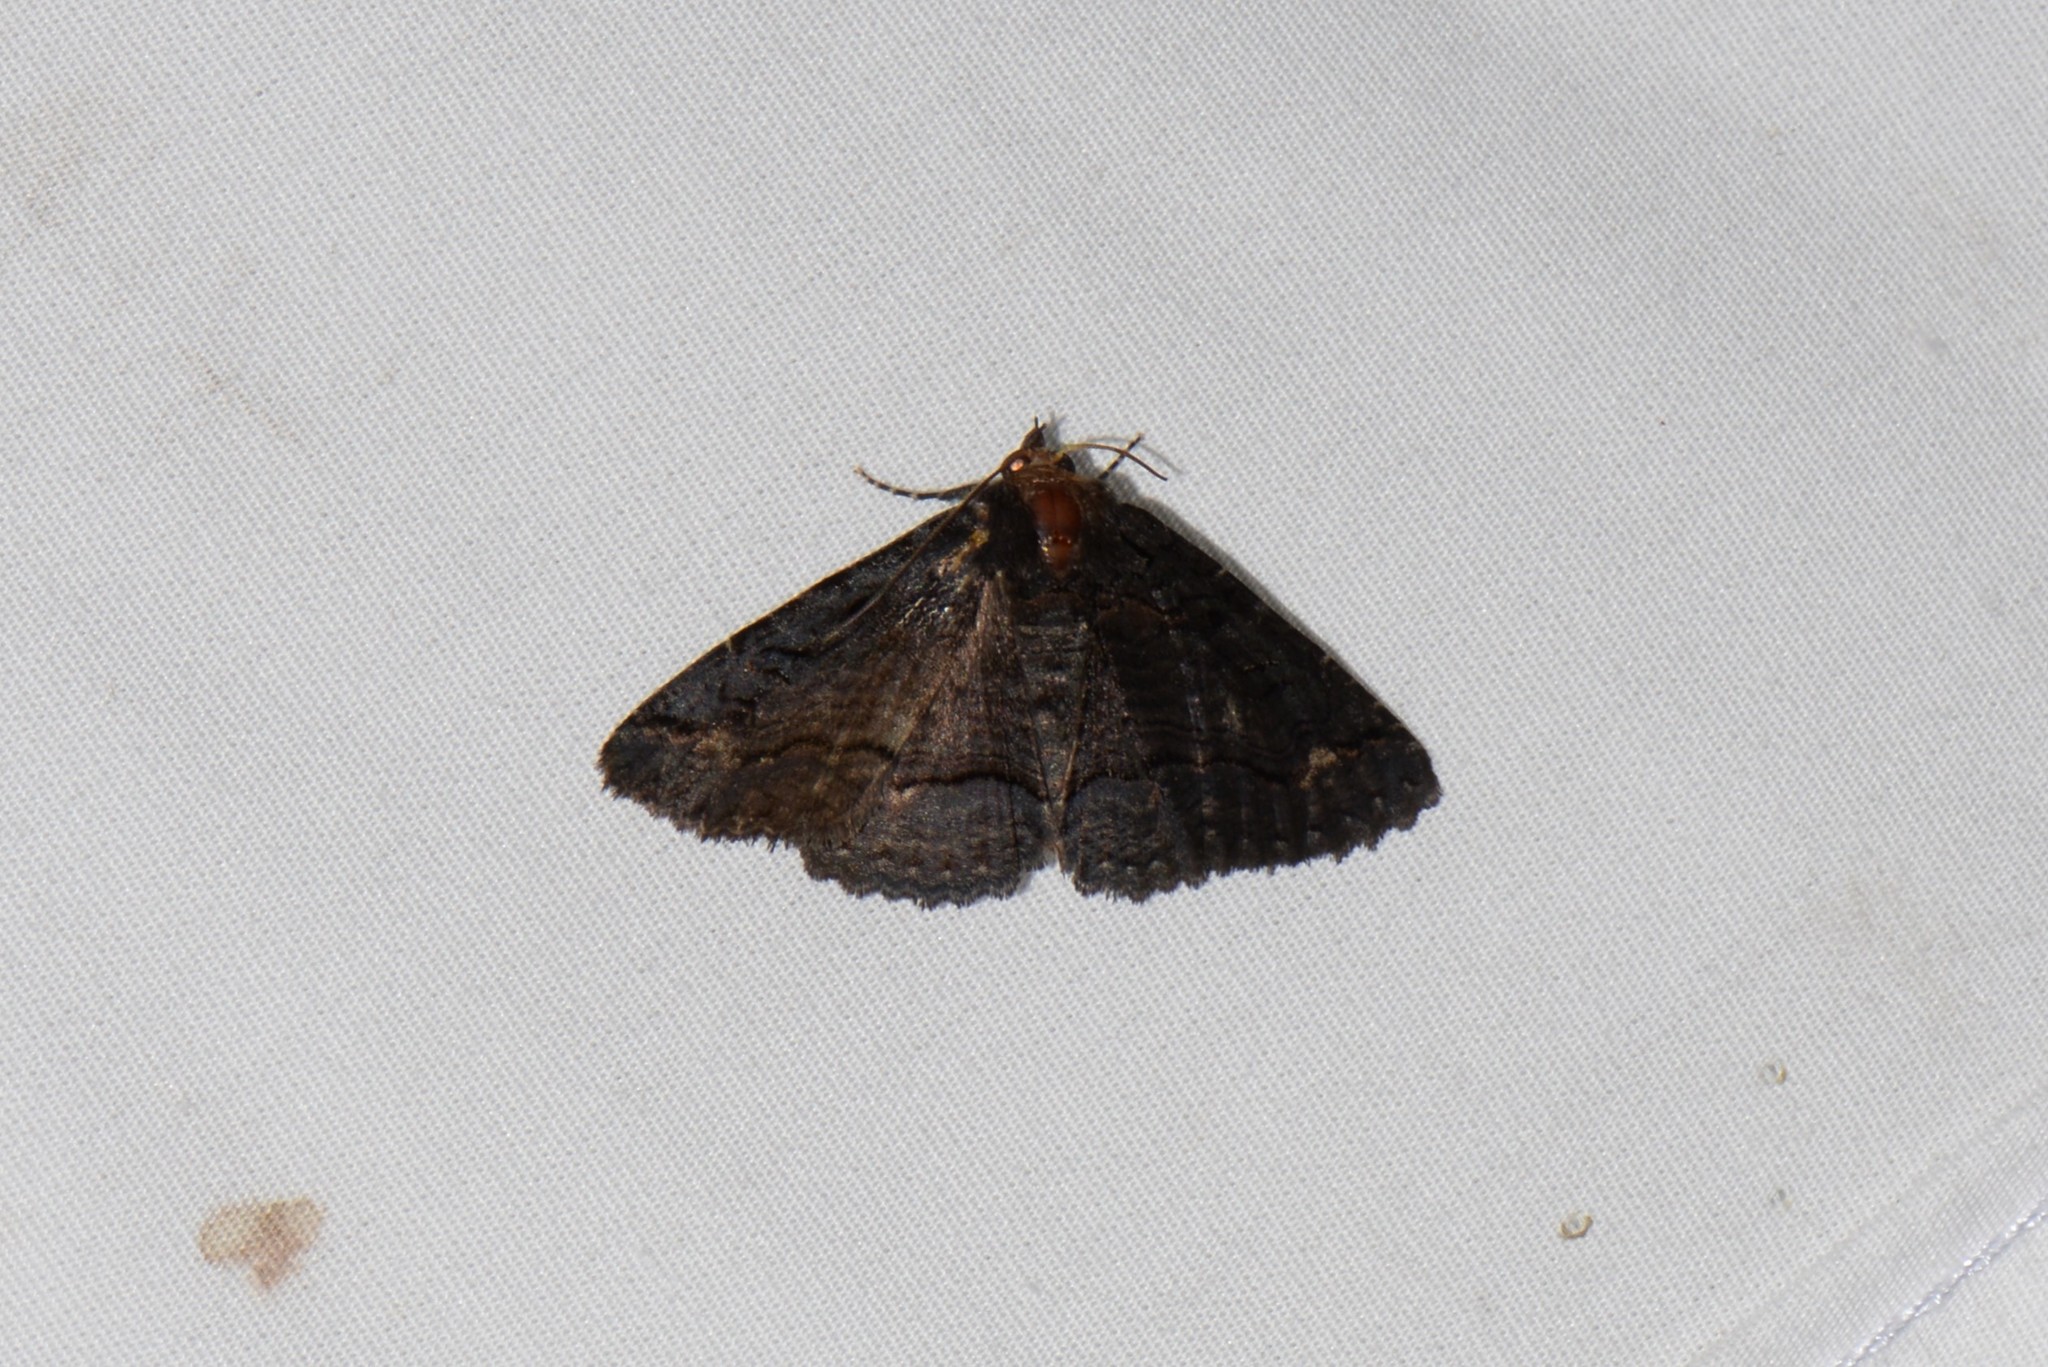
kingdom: Animalia
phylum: Arthropoda
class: Insecta
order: Lepidoptera
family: Erebidae
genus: Zale
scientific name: Zale undularis
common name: Black zale moth
